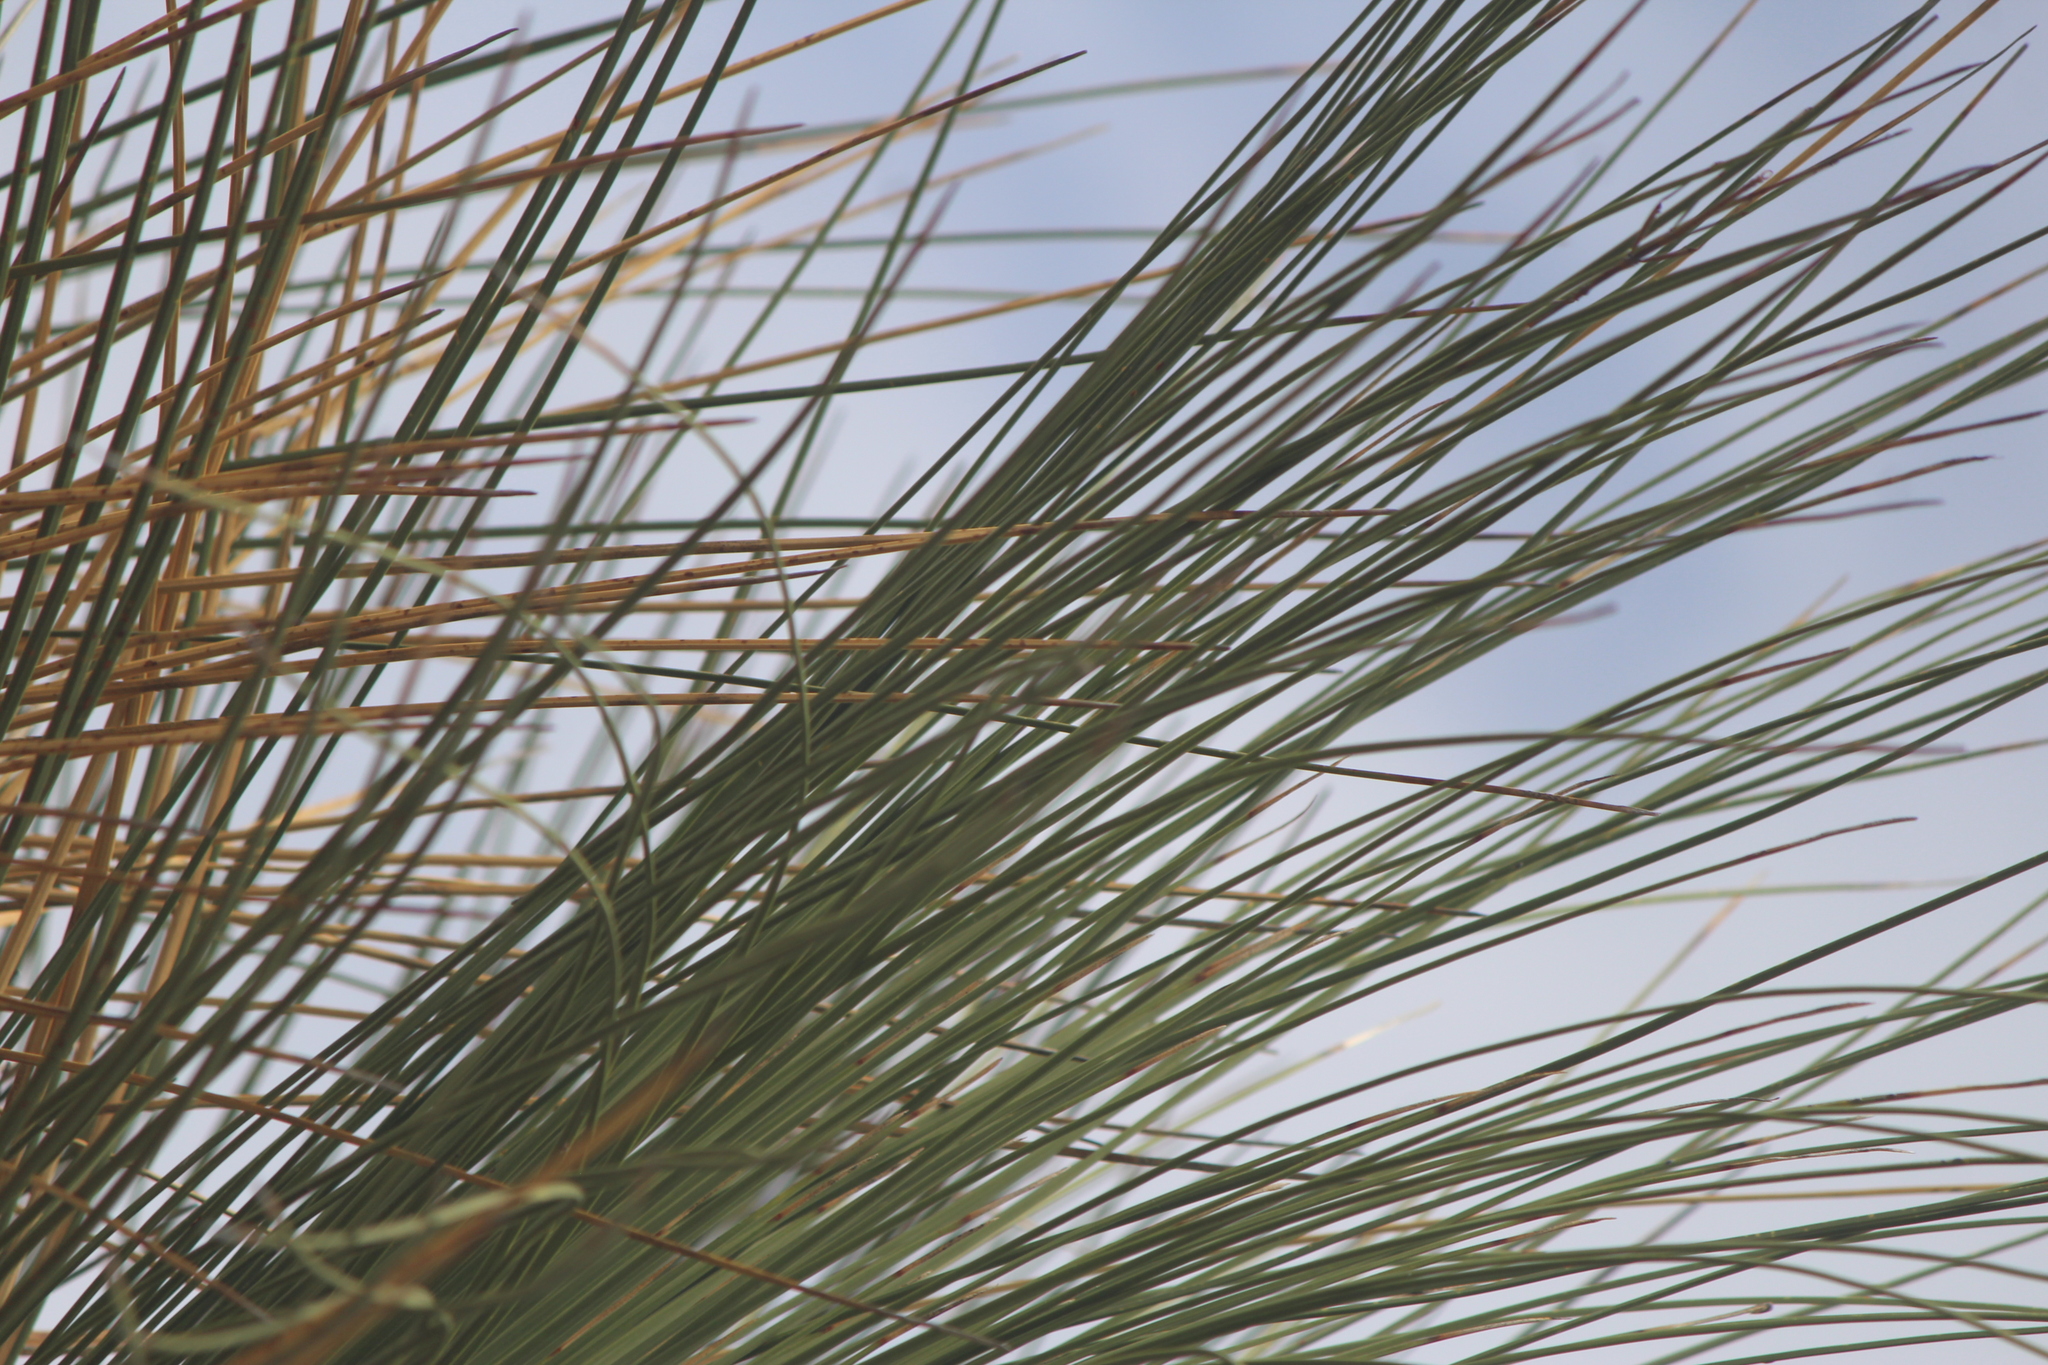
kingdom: Plantae
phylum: Tracheophyta
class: Liliopsida
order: Asparagales
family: Asparagaceae
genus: Dasylirion
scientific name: Dasylirion longissimum
